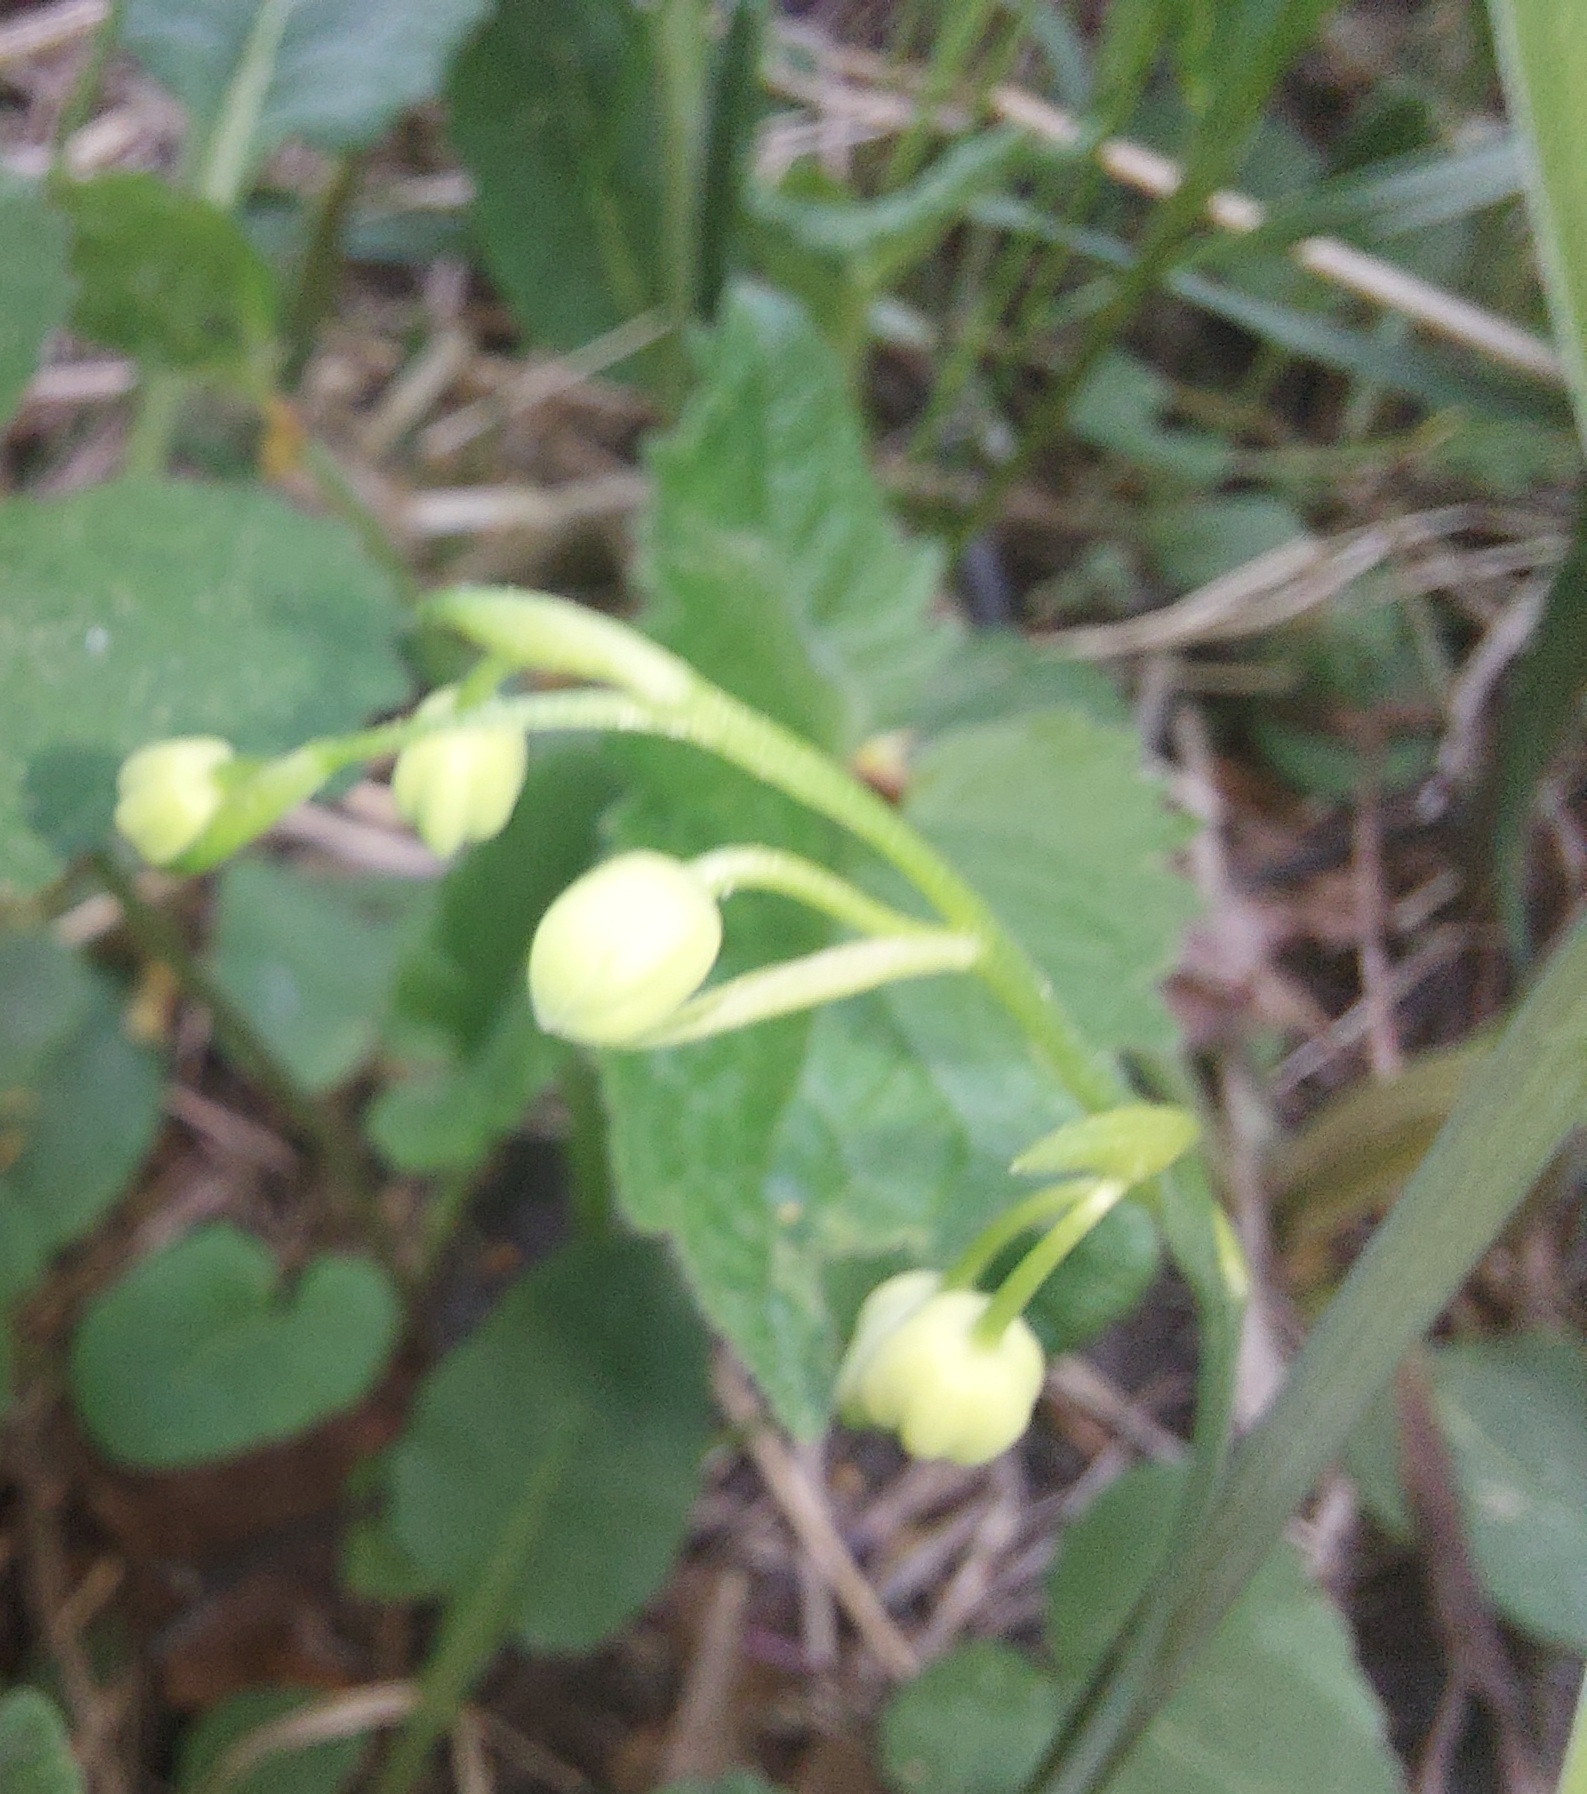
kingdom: Plantae
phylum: Tracheophyta
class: Liliopsida
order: Asparagales
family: Asparagaceae
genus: Convallaria
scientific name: Convallaria majalis
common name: Lily-of-the-valley
